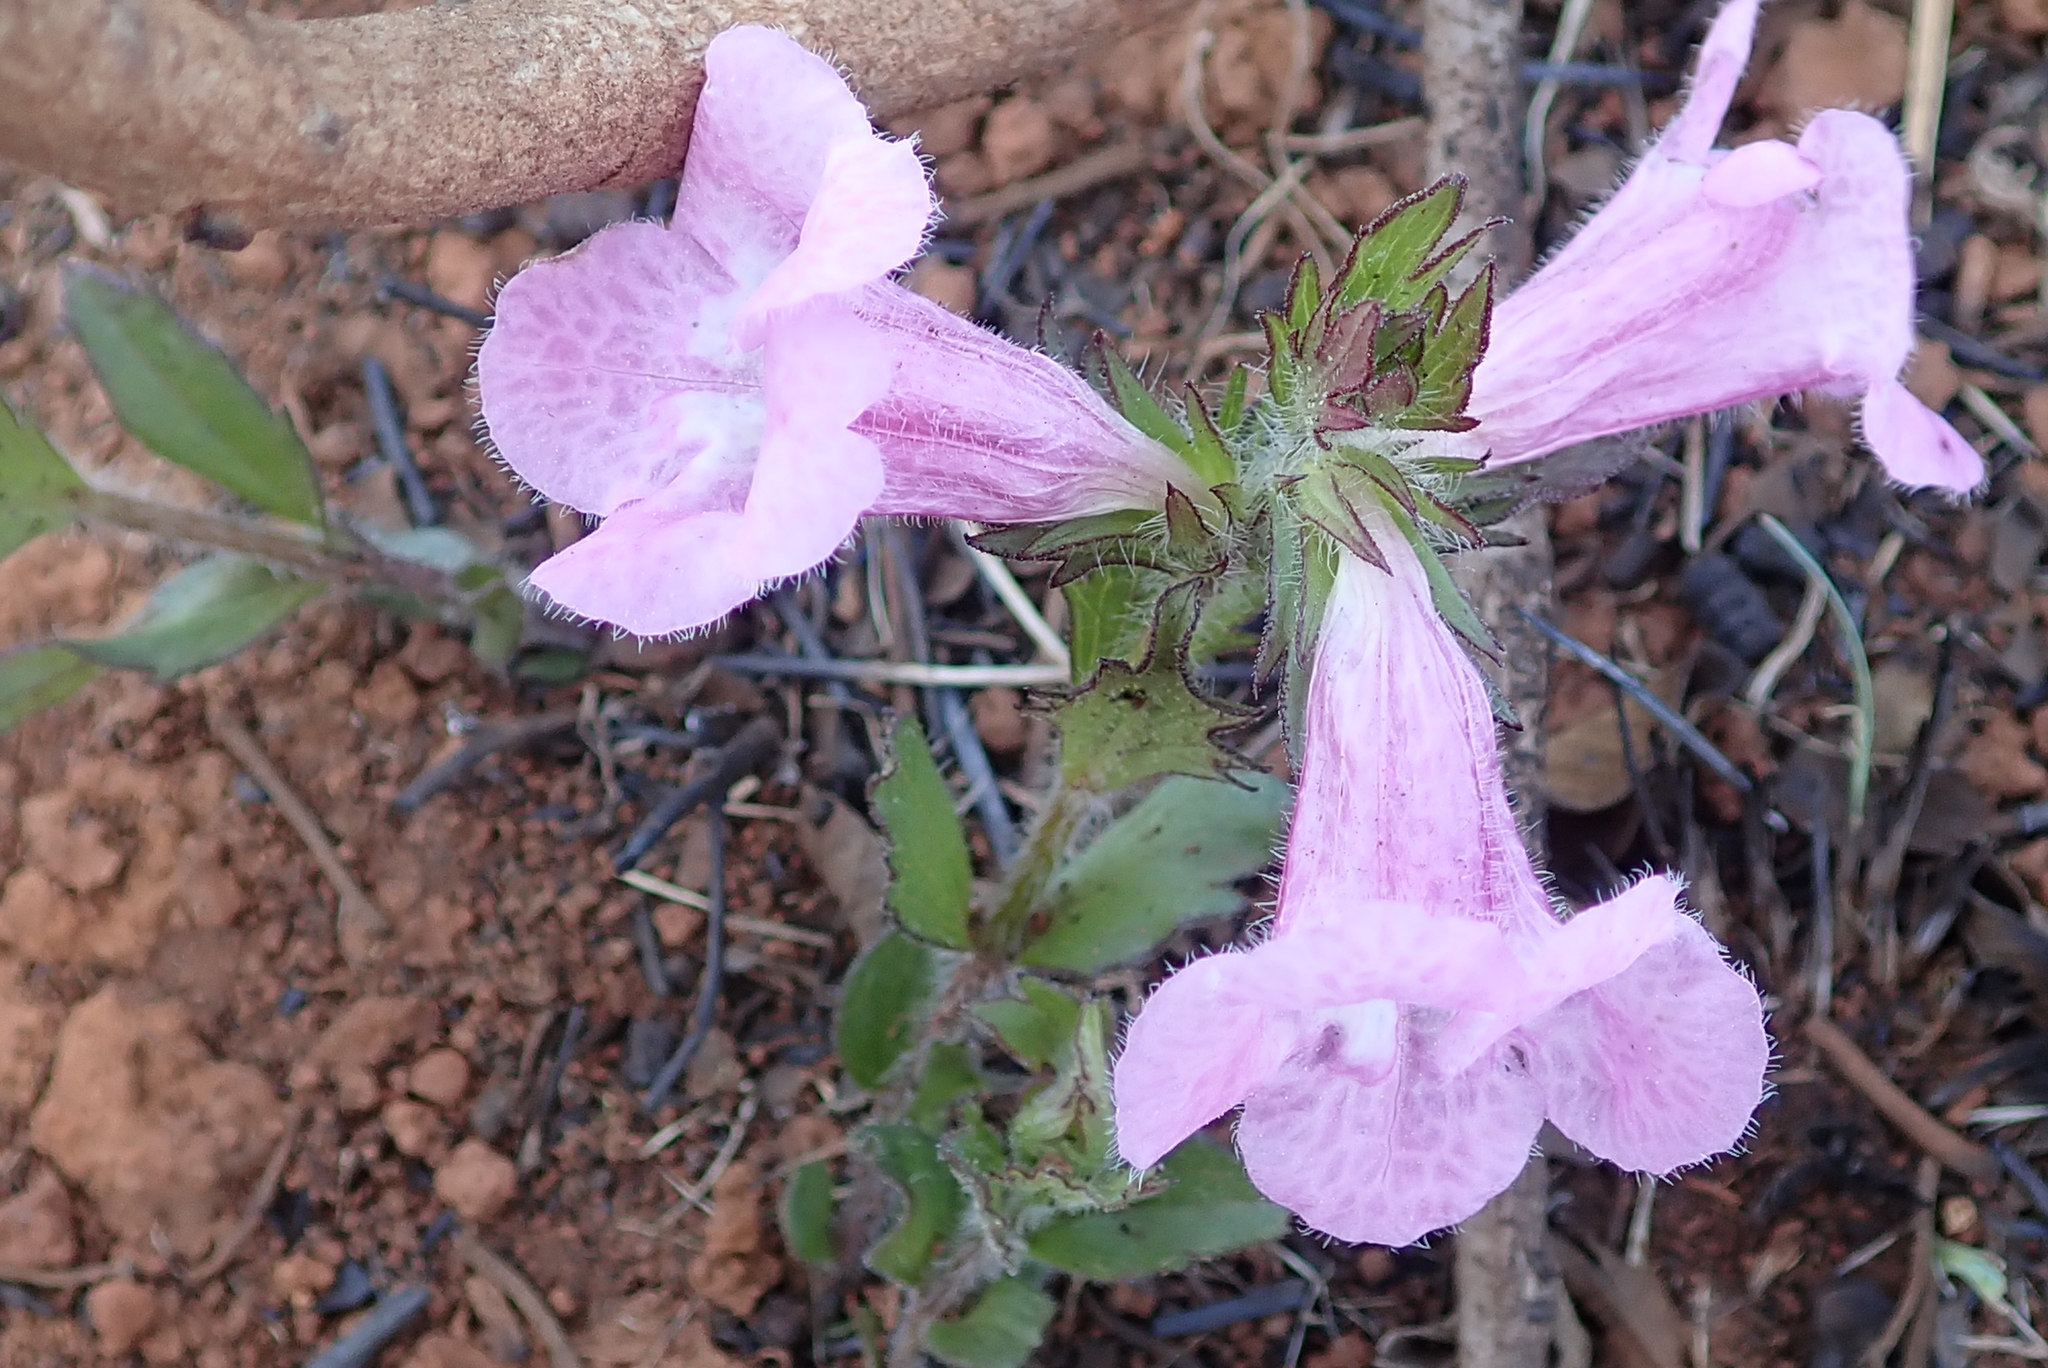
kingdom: Plantae
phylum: Tracheophyta
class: Magnoliopsida
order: Lamiales
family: Orobanchaceae
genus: Graderia
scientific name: Graderia scabra
